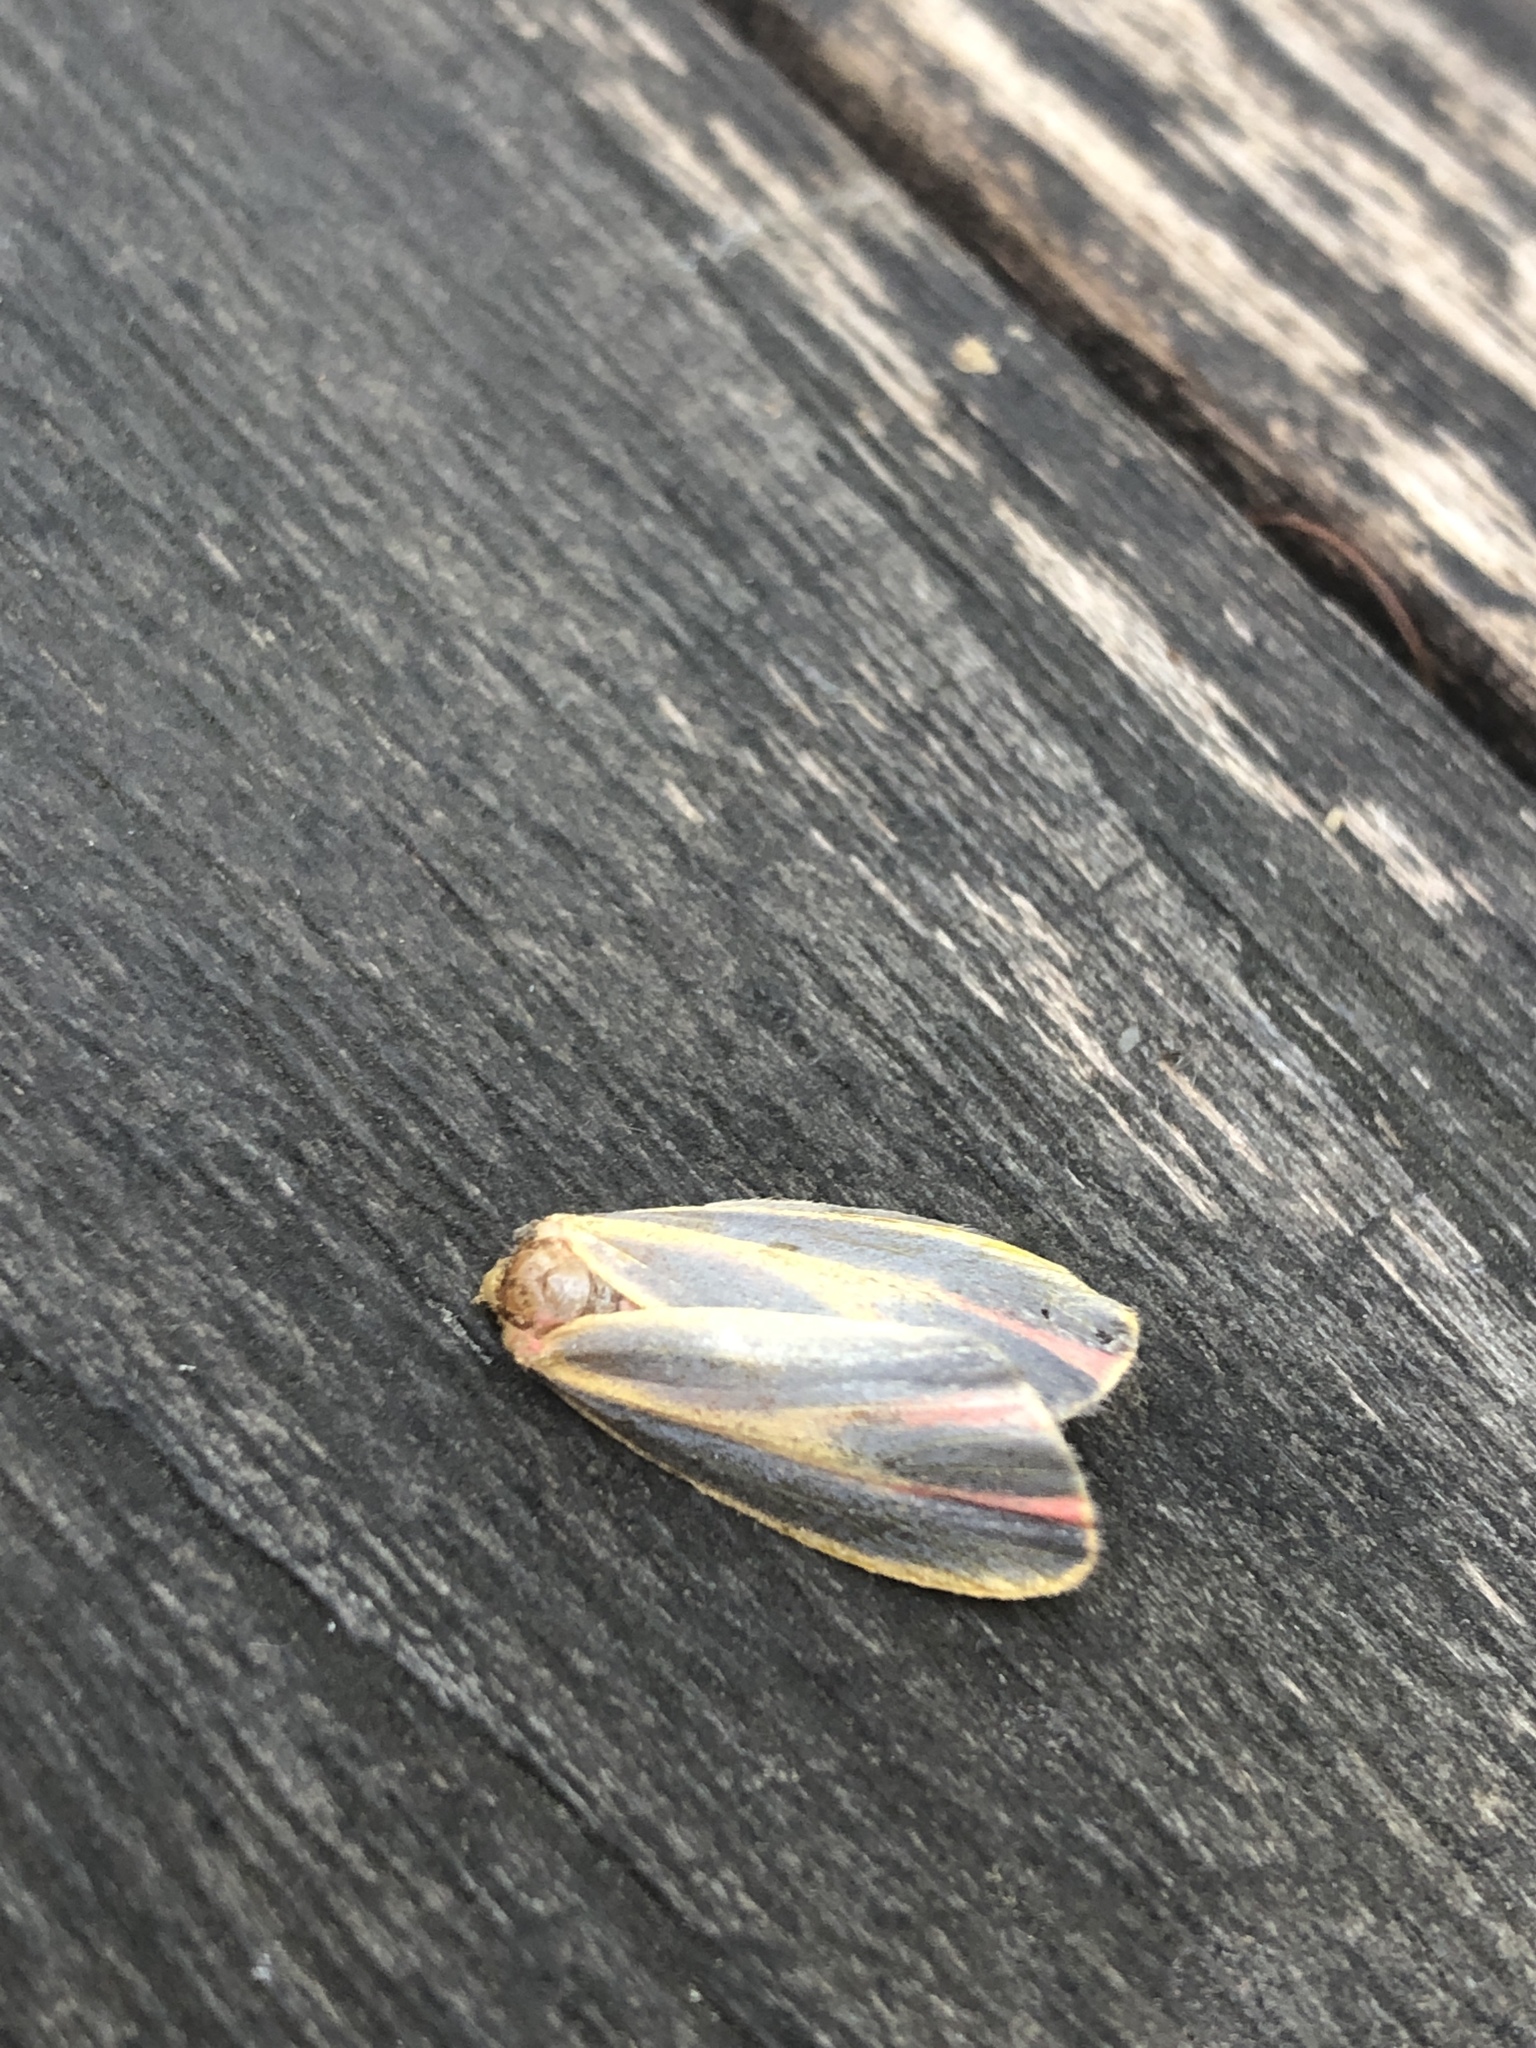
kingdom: Animalia
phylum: Arthropoda
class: Insecta
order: Lepidoptera
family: Erebidae
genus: Hypoprepia
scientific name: Hypoprepia fucosa
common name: Painted lichen moth
